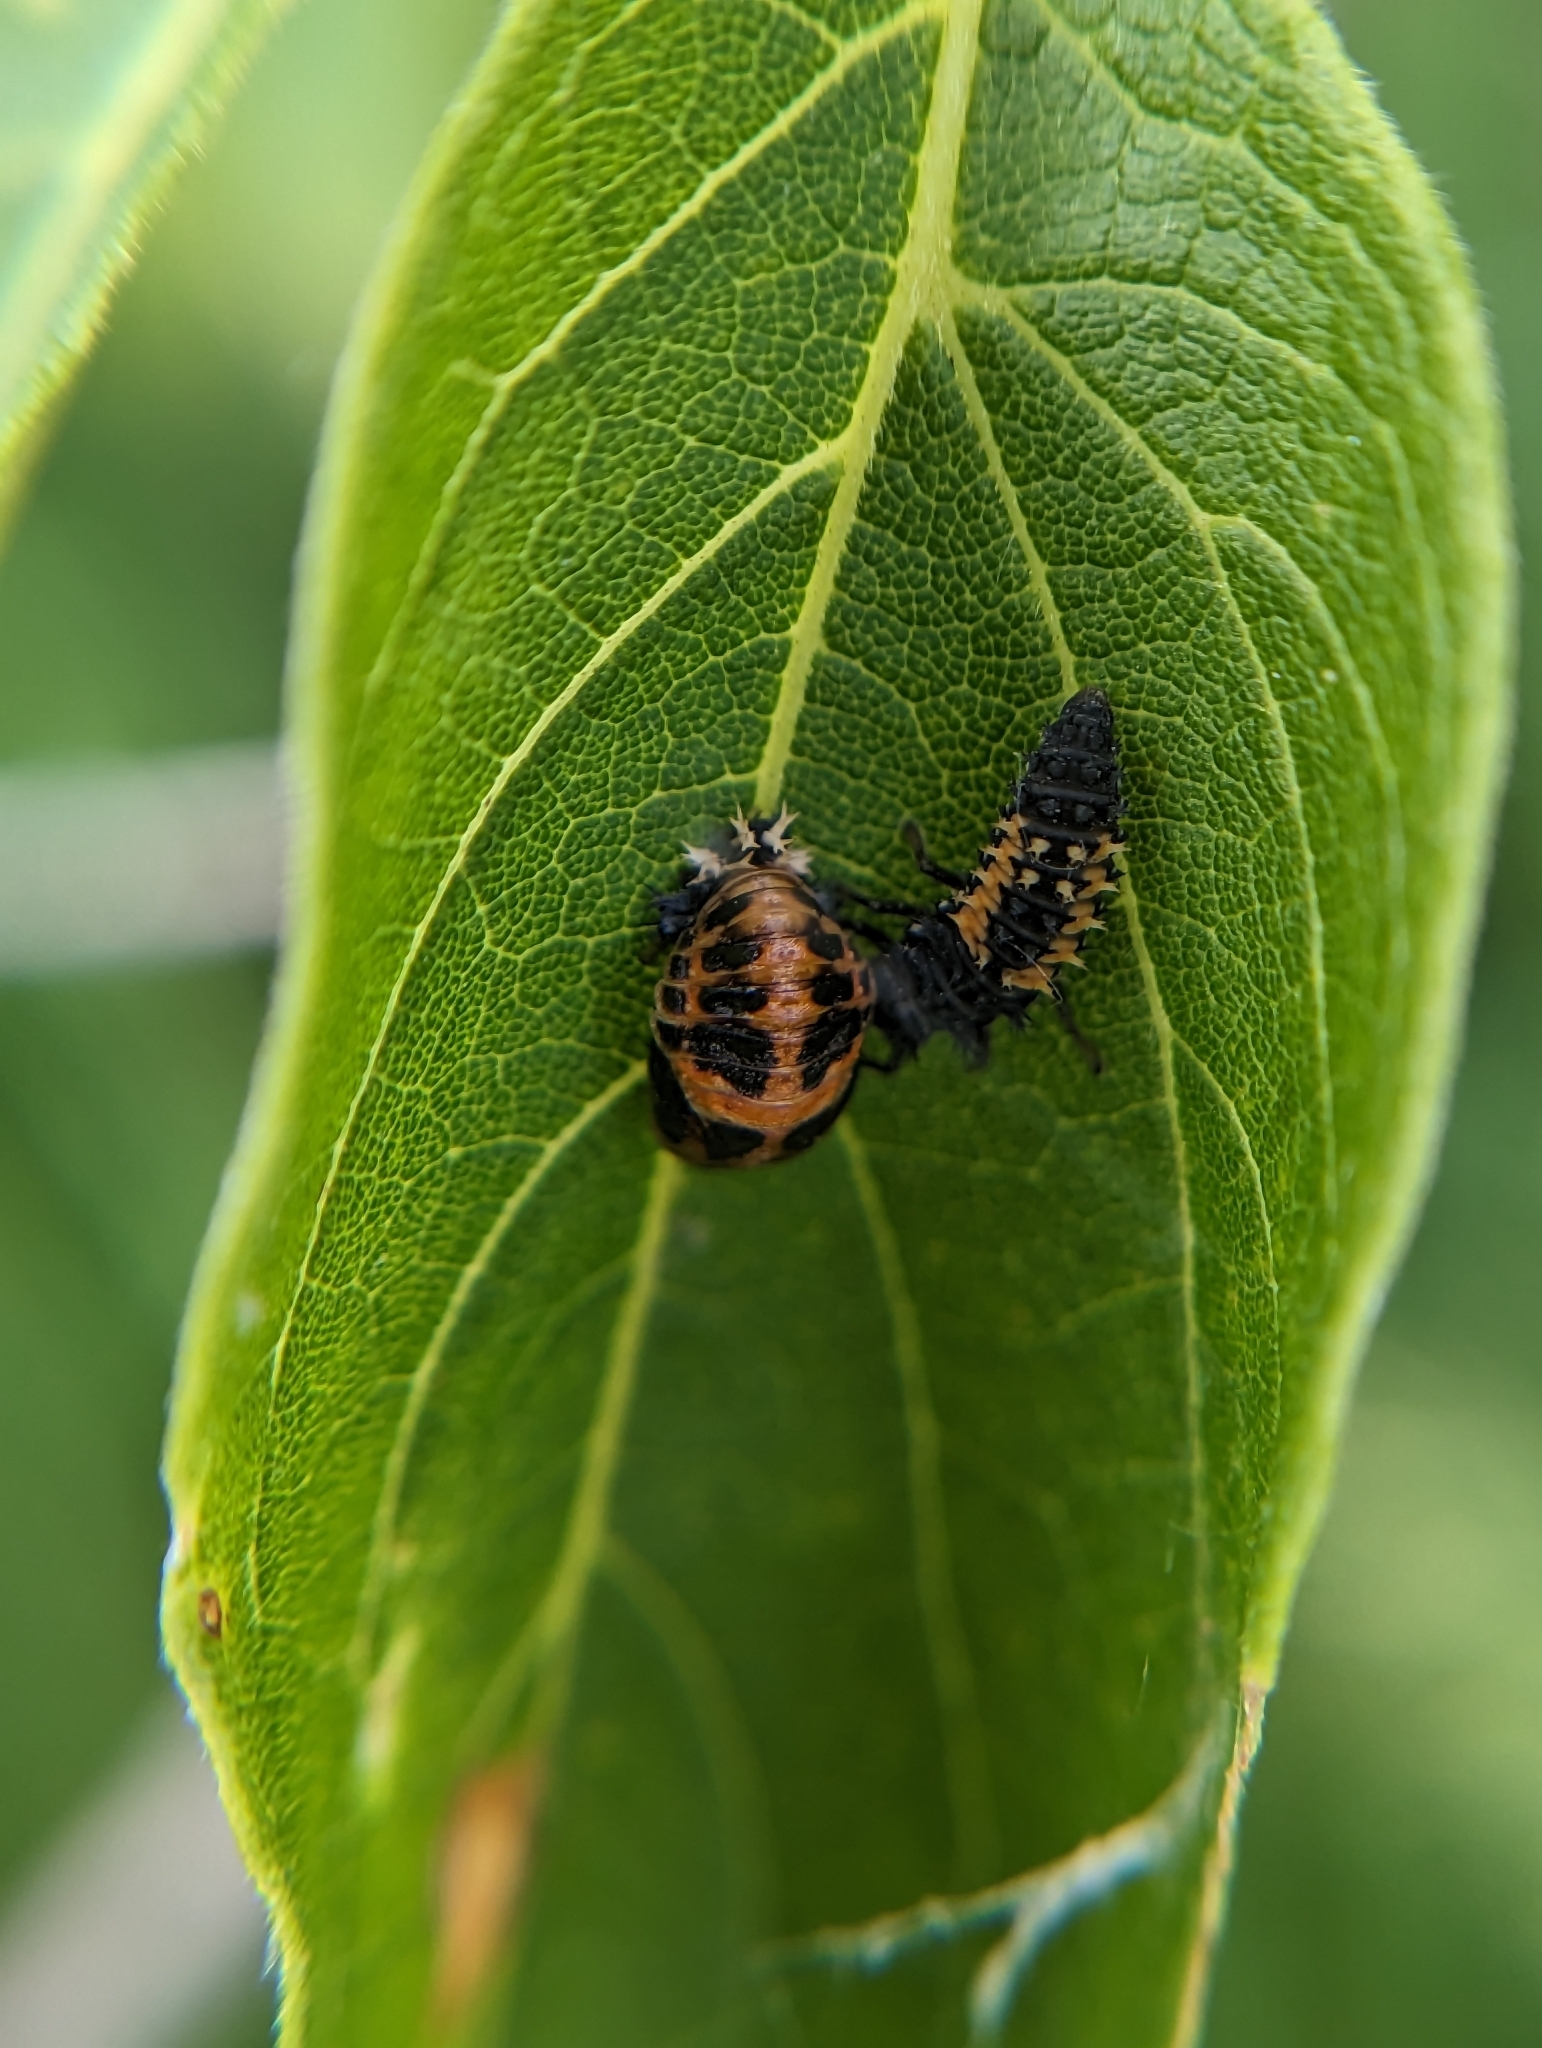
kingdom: Animalia
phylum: Arthropoda
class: Insecta
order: Coleoptera
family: Coccinellidae
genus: Harmonia
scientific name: Harmonia axyridis
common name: Harlequin ladybird
